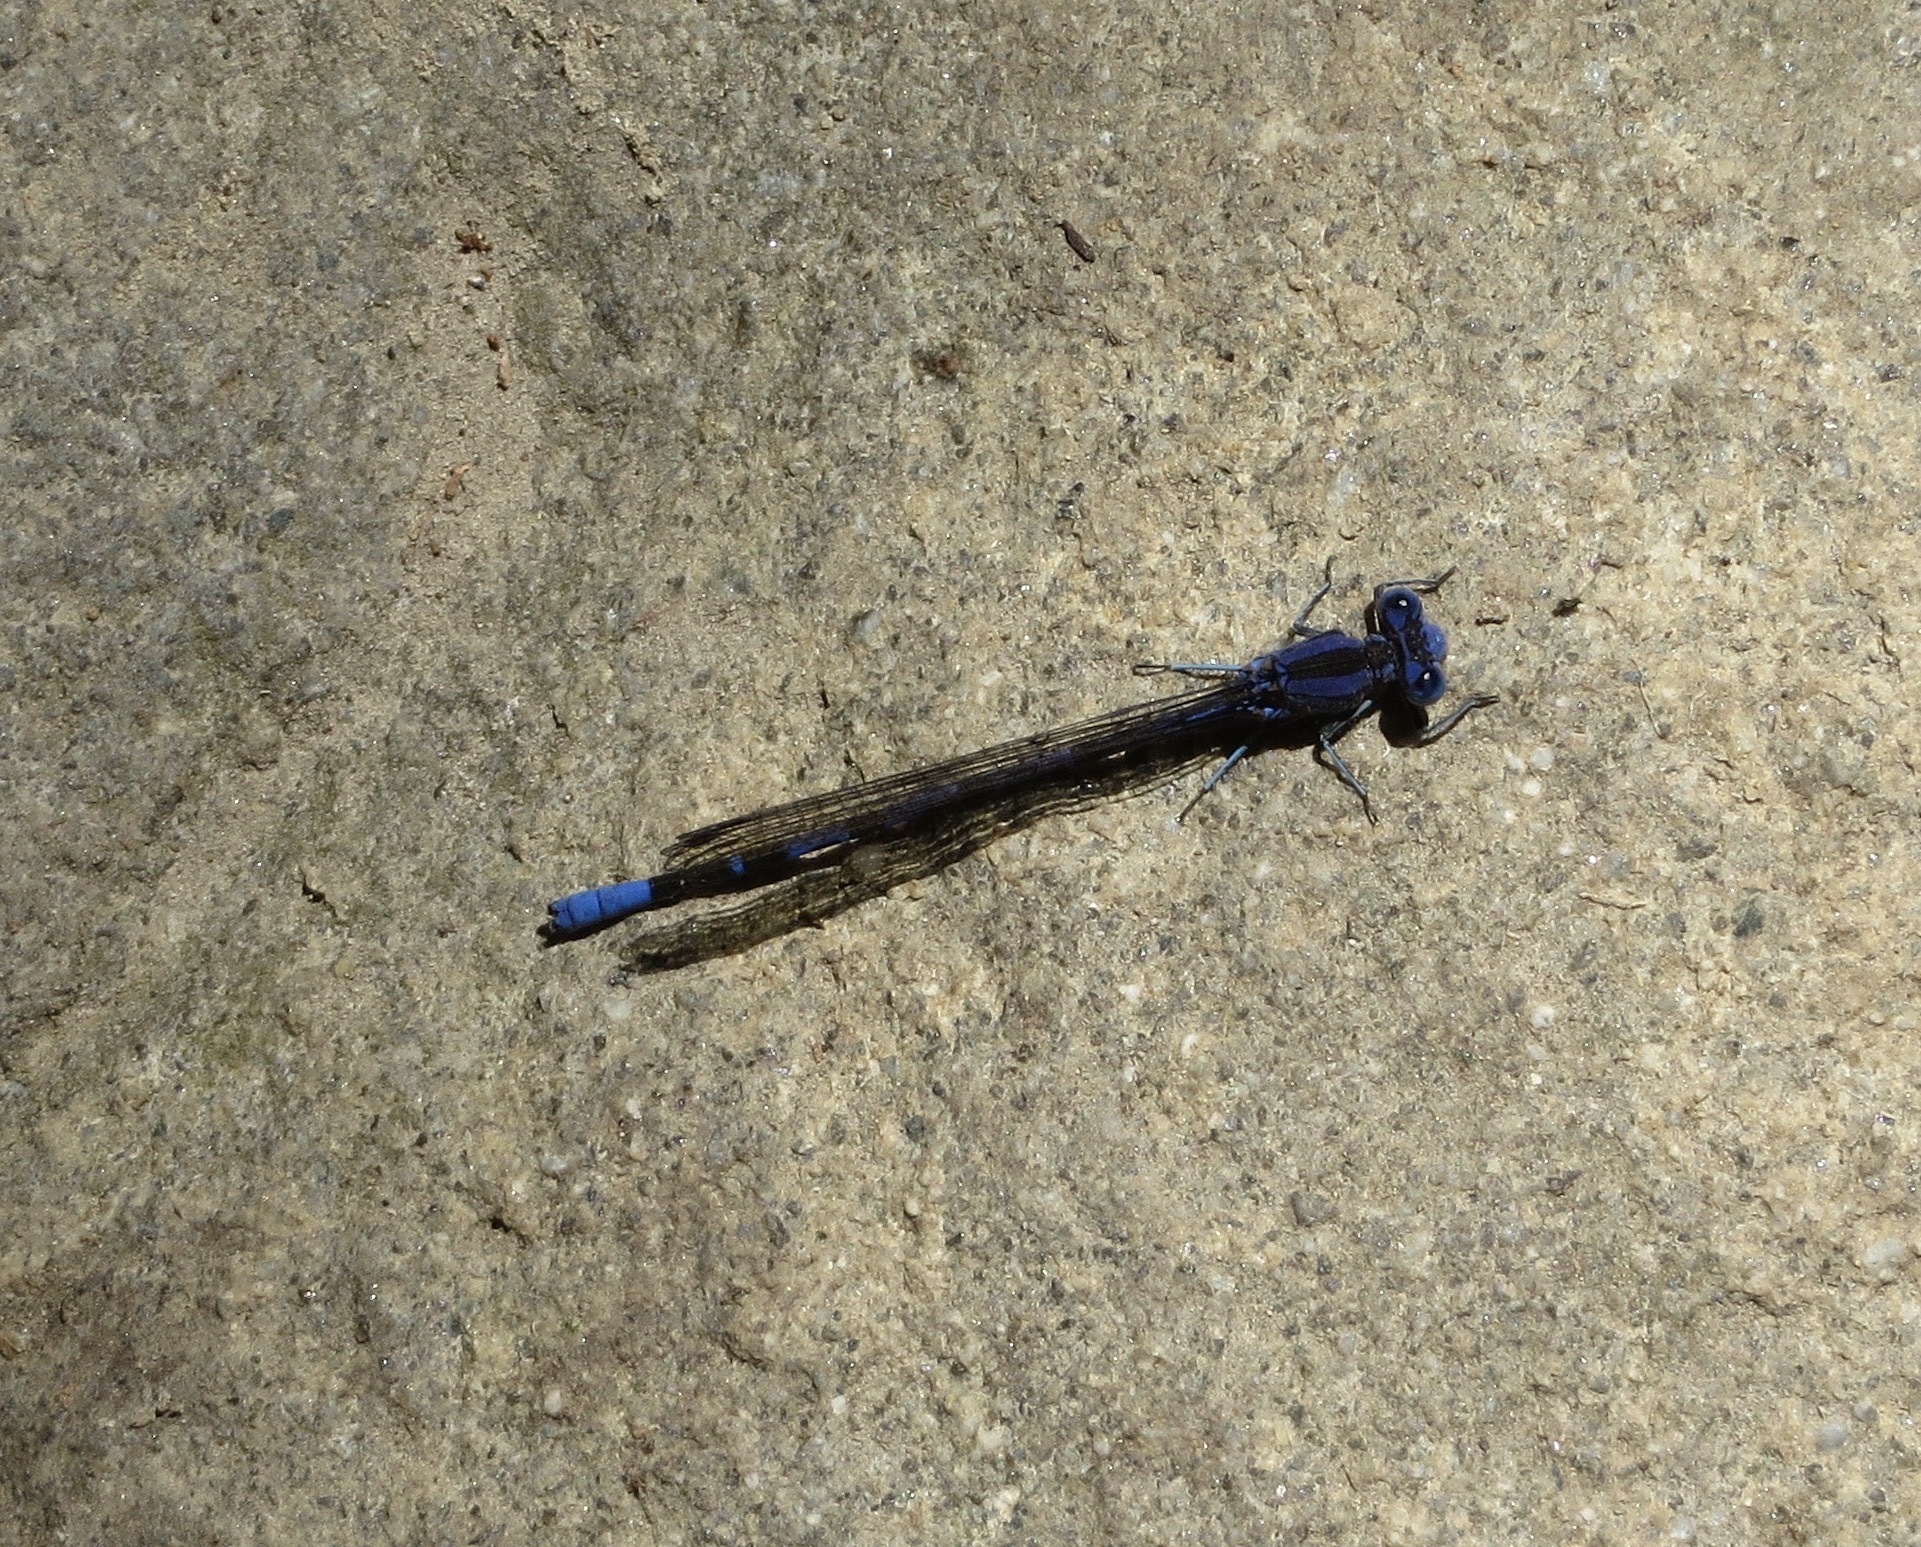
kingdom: Animalia
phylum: Arthropoda
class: Insecta
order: Odonata
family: Coenagrionidae
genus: Argia
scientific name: Argia vivida
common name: Vivid dancer
